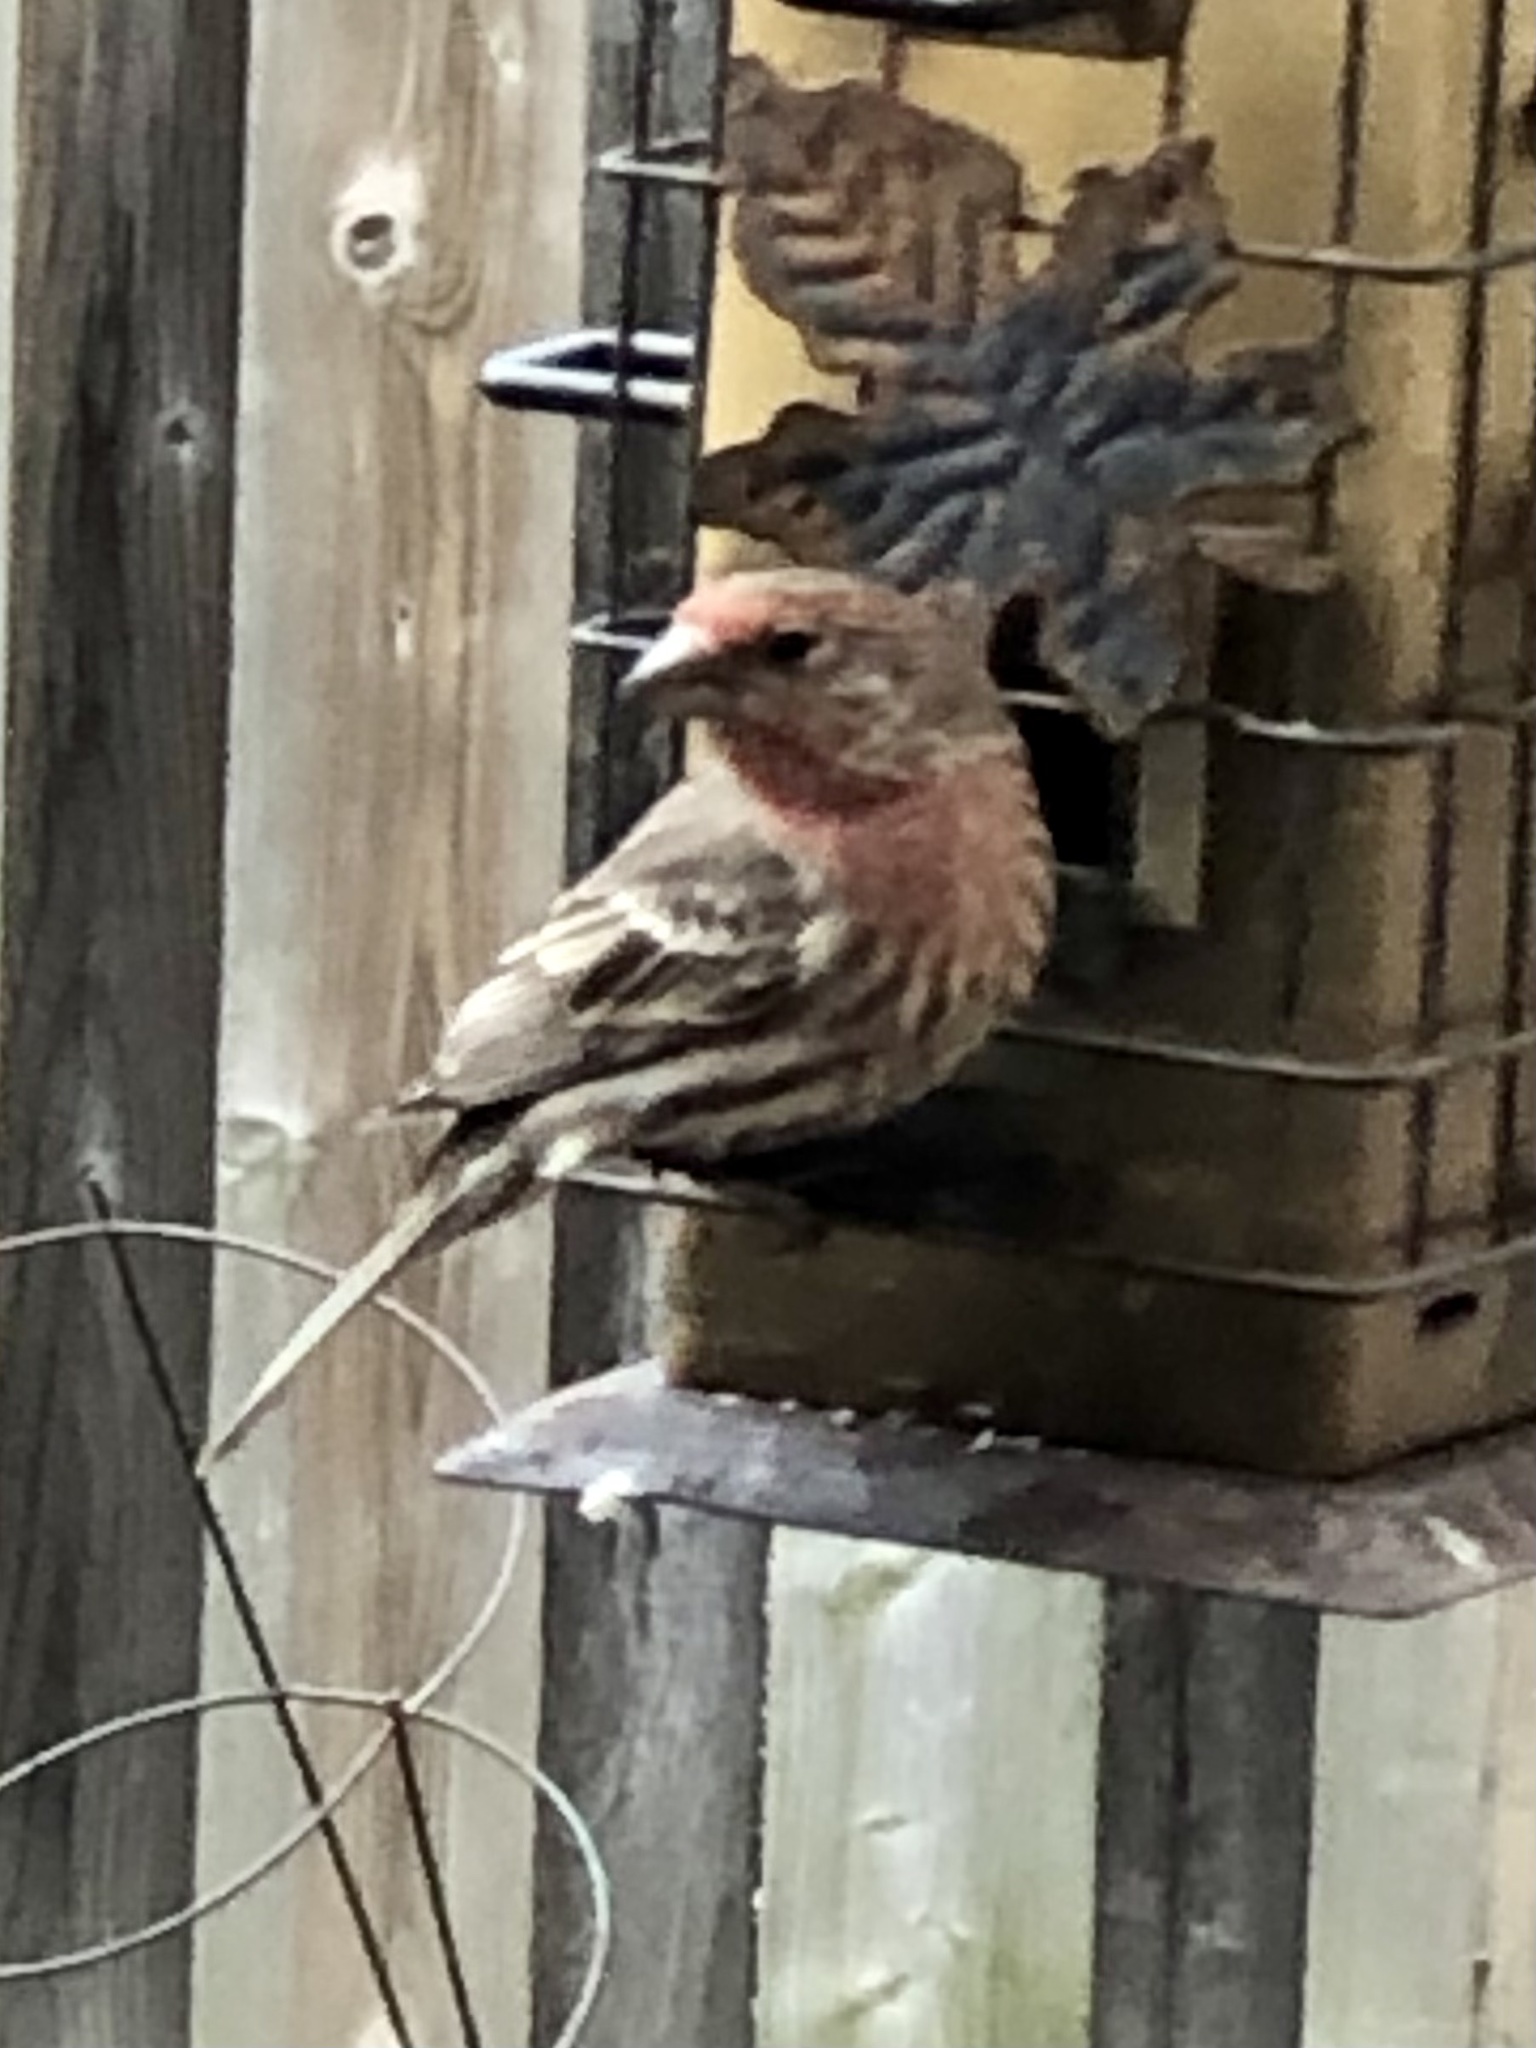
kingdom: Animalia
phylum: Chordata
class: Aves
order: Passeriformes
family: Fringillidae
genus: Haemorhous
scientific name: Haemorhous mexicanus
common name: House finch
